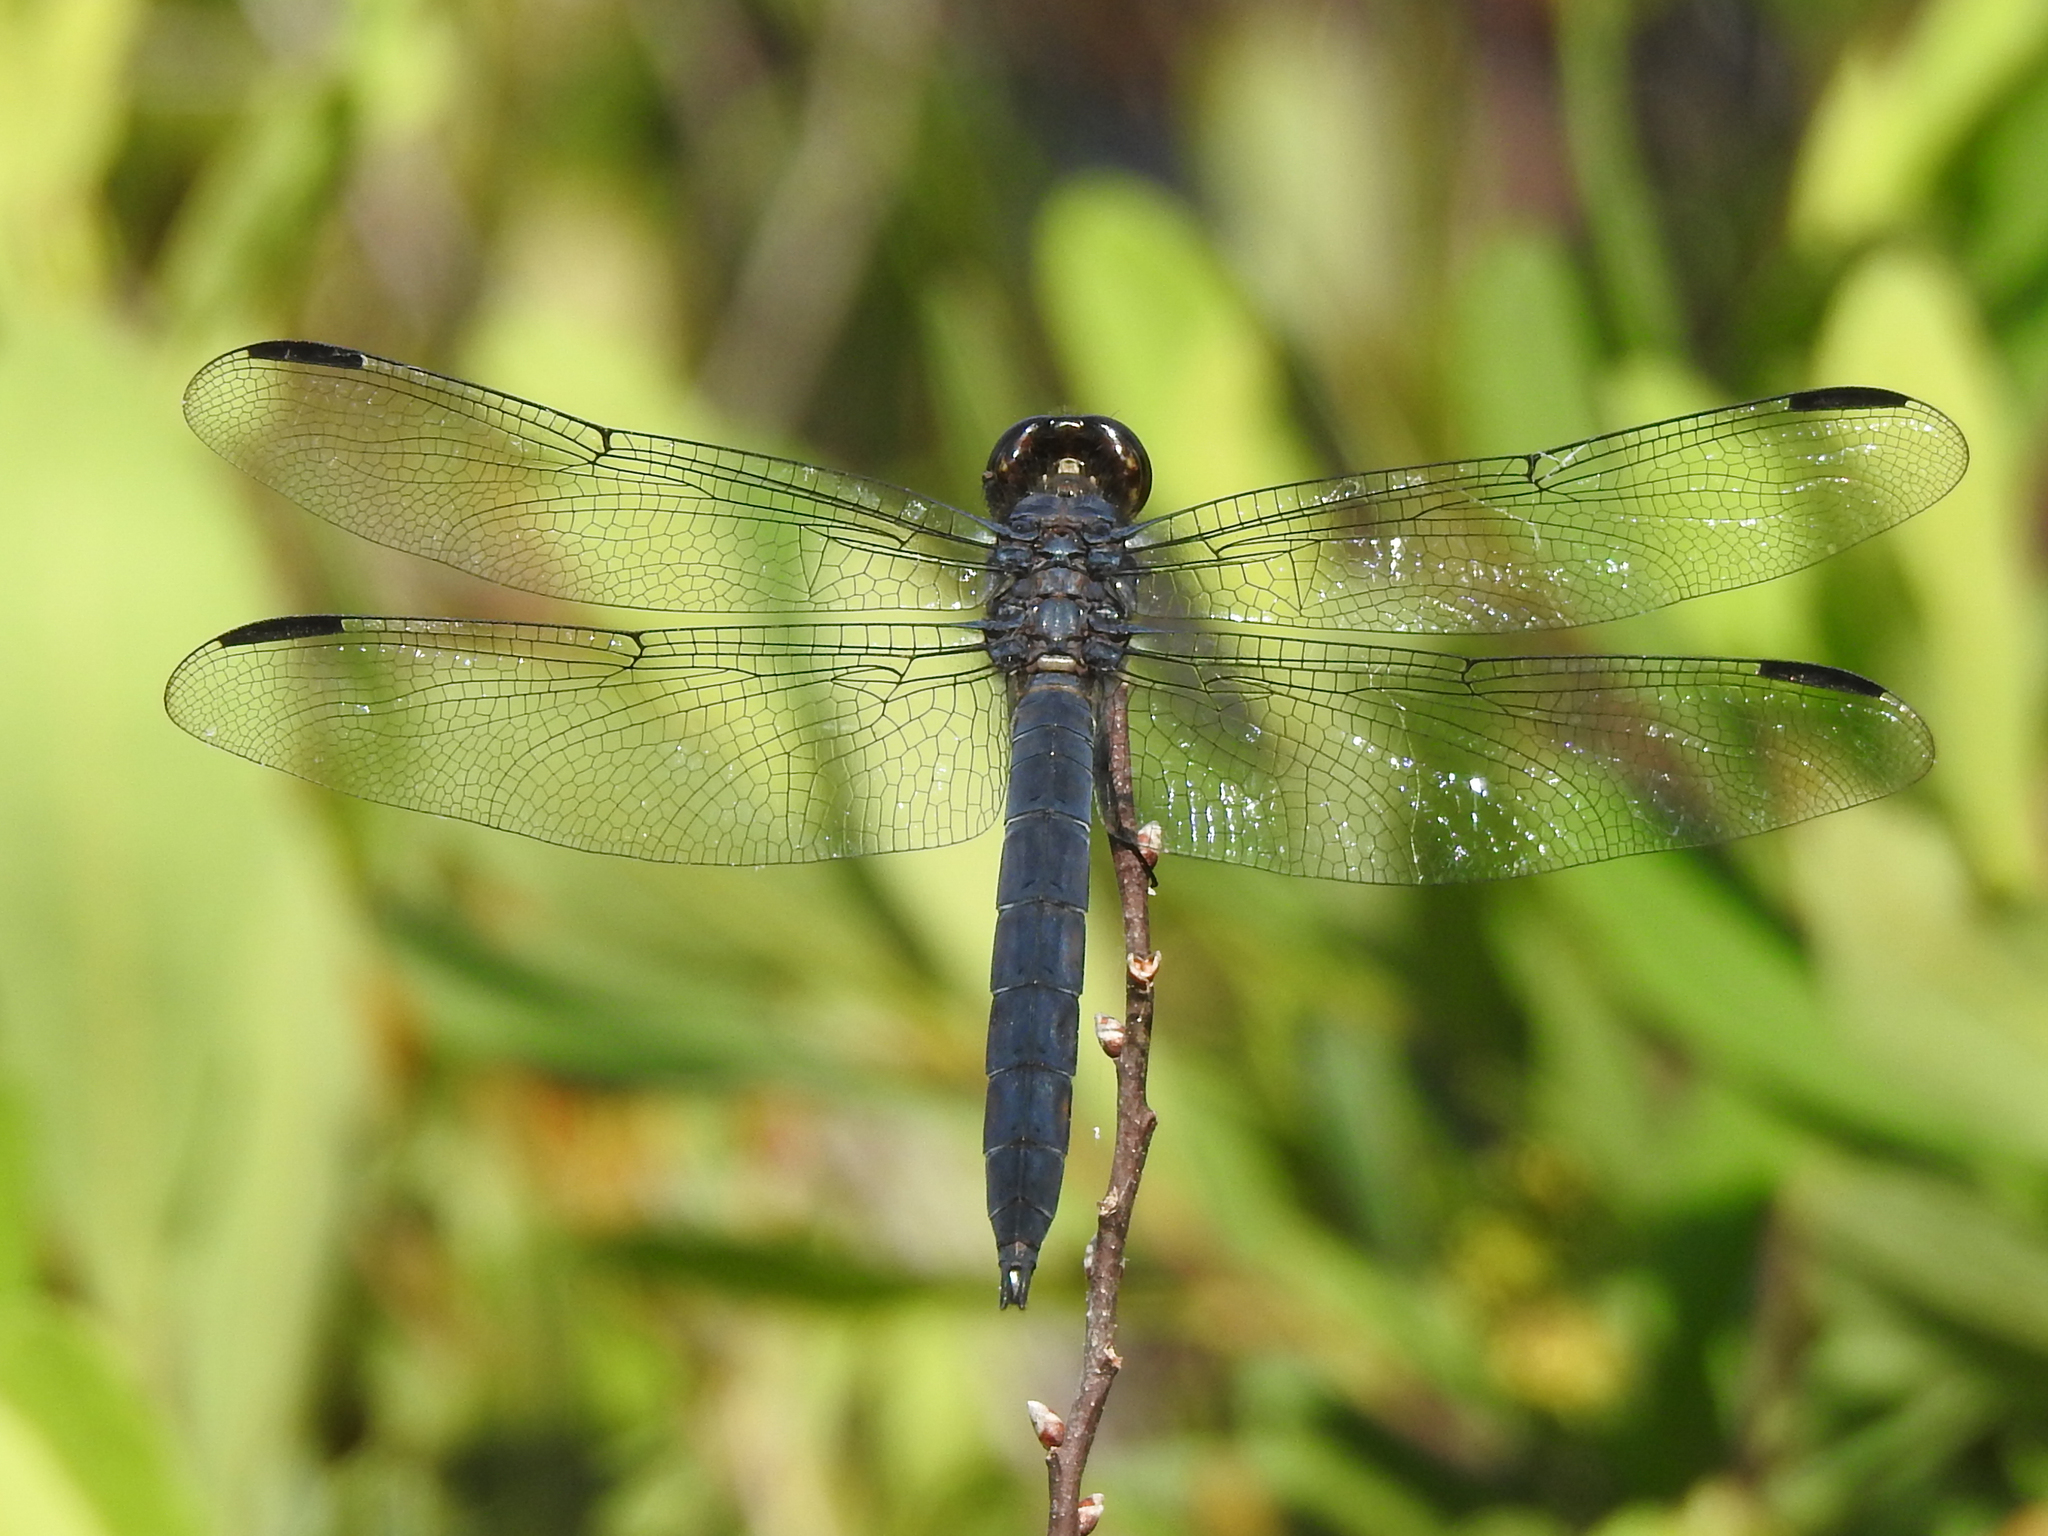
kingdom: Animalia
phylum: Arthropoda
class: Insecta
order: Odonata
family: Libellulidae
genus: Libellula
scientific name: Libellula incesta
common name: Slaty skimmer
